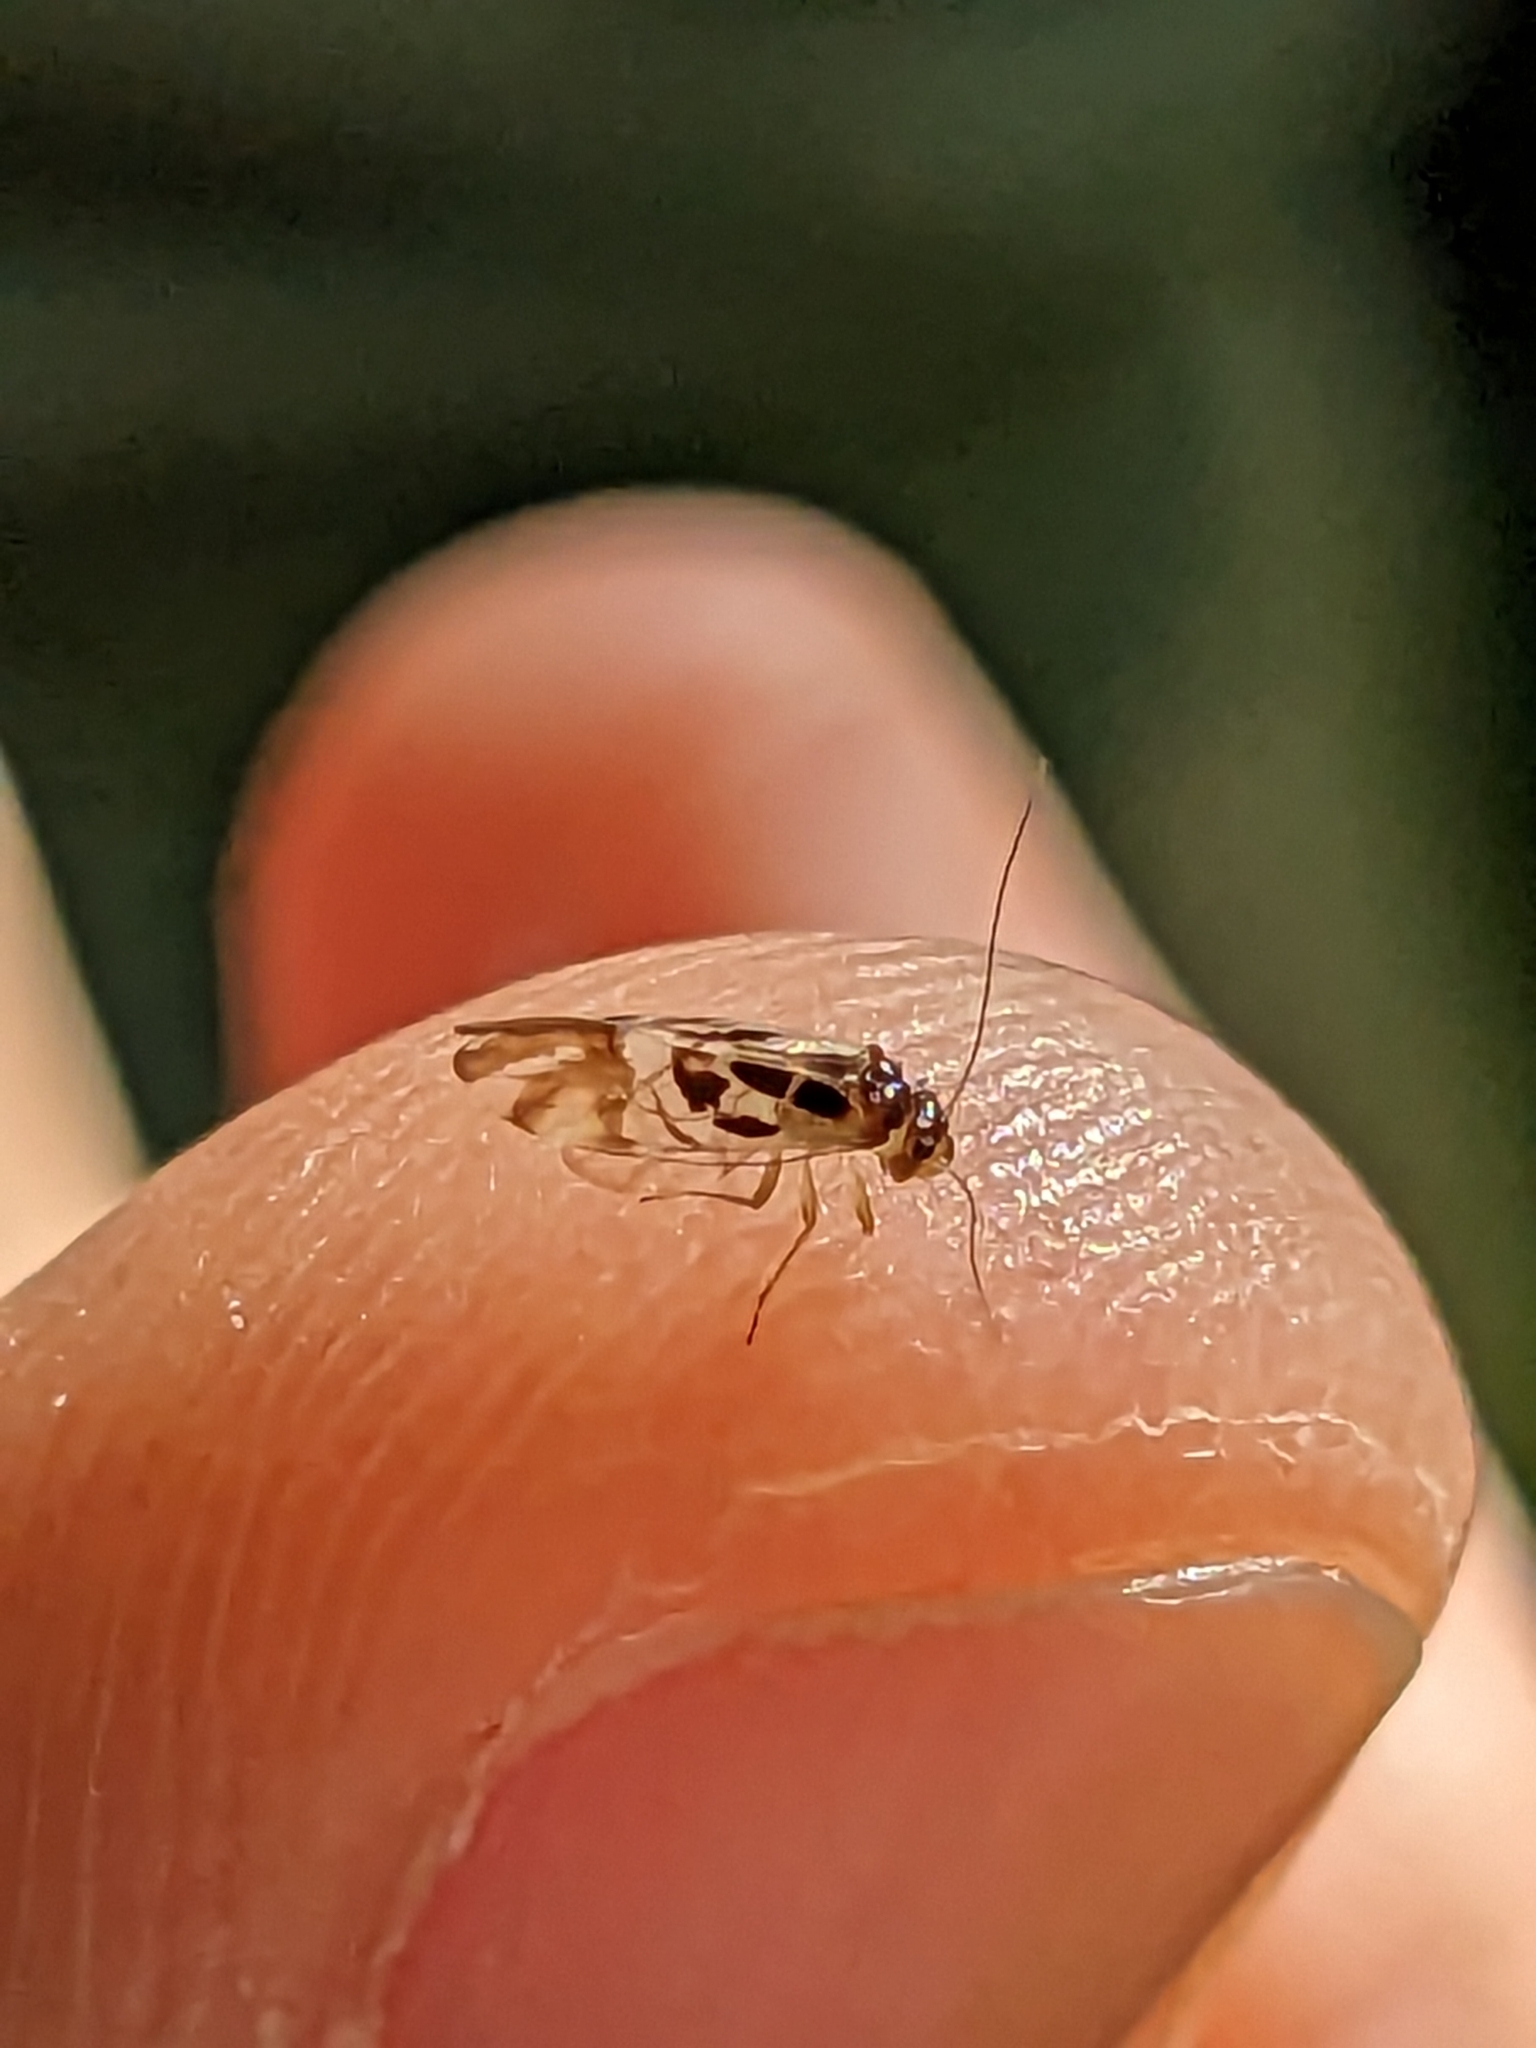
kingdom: Animalia
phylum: Arthropoda
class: Insecta
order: Psocodea
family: Stenopsocidae
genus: Graphopsocus
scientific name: Graphopsocus cruciatus
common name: Lizard bark louse
